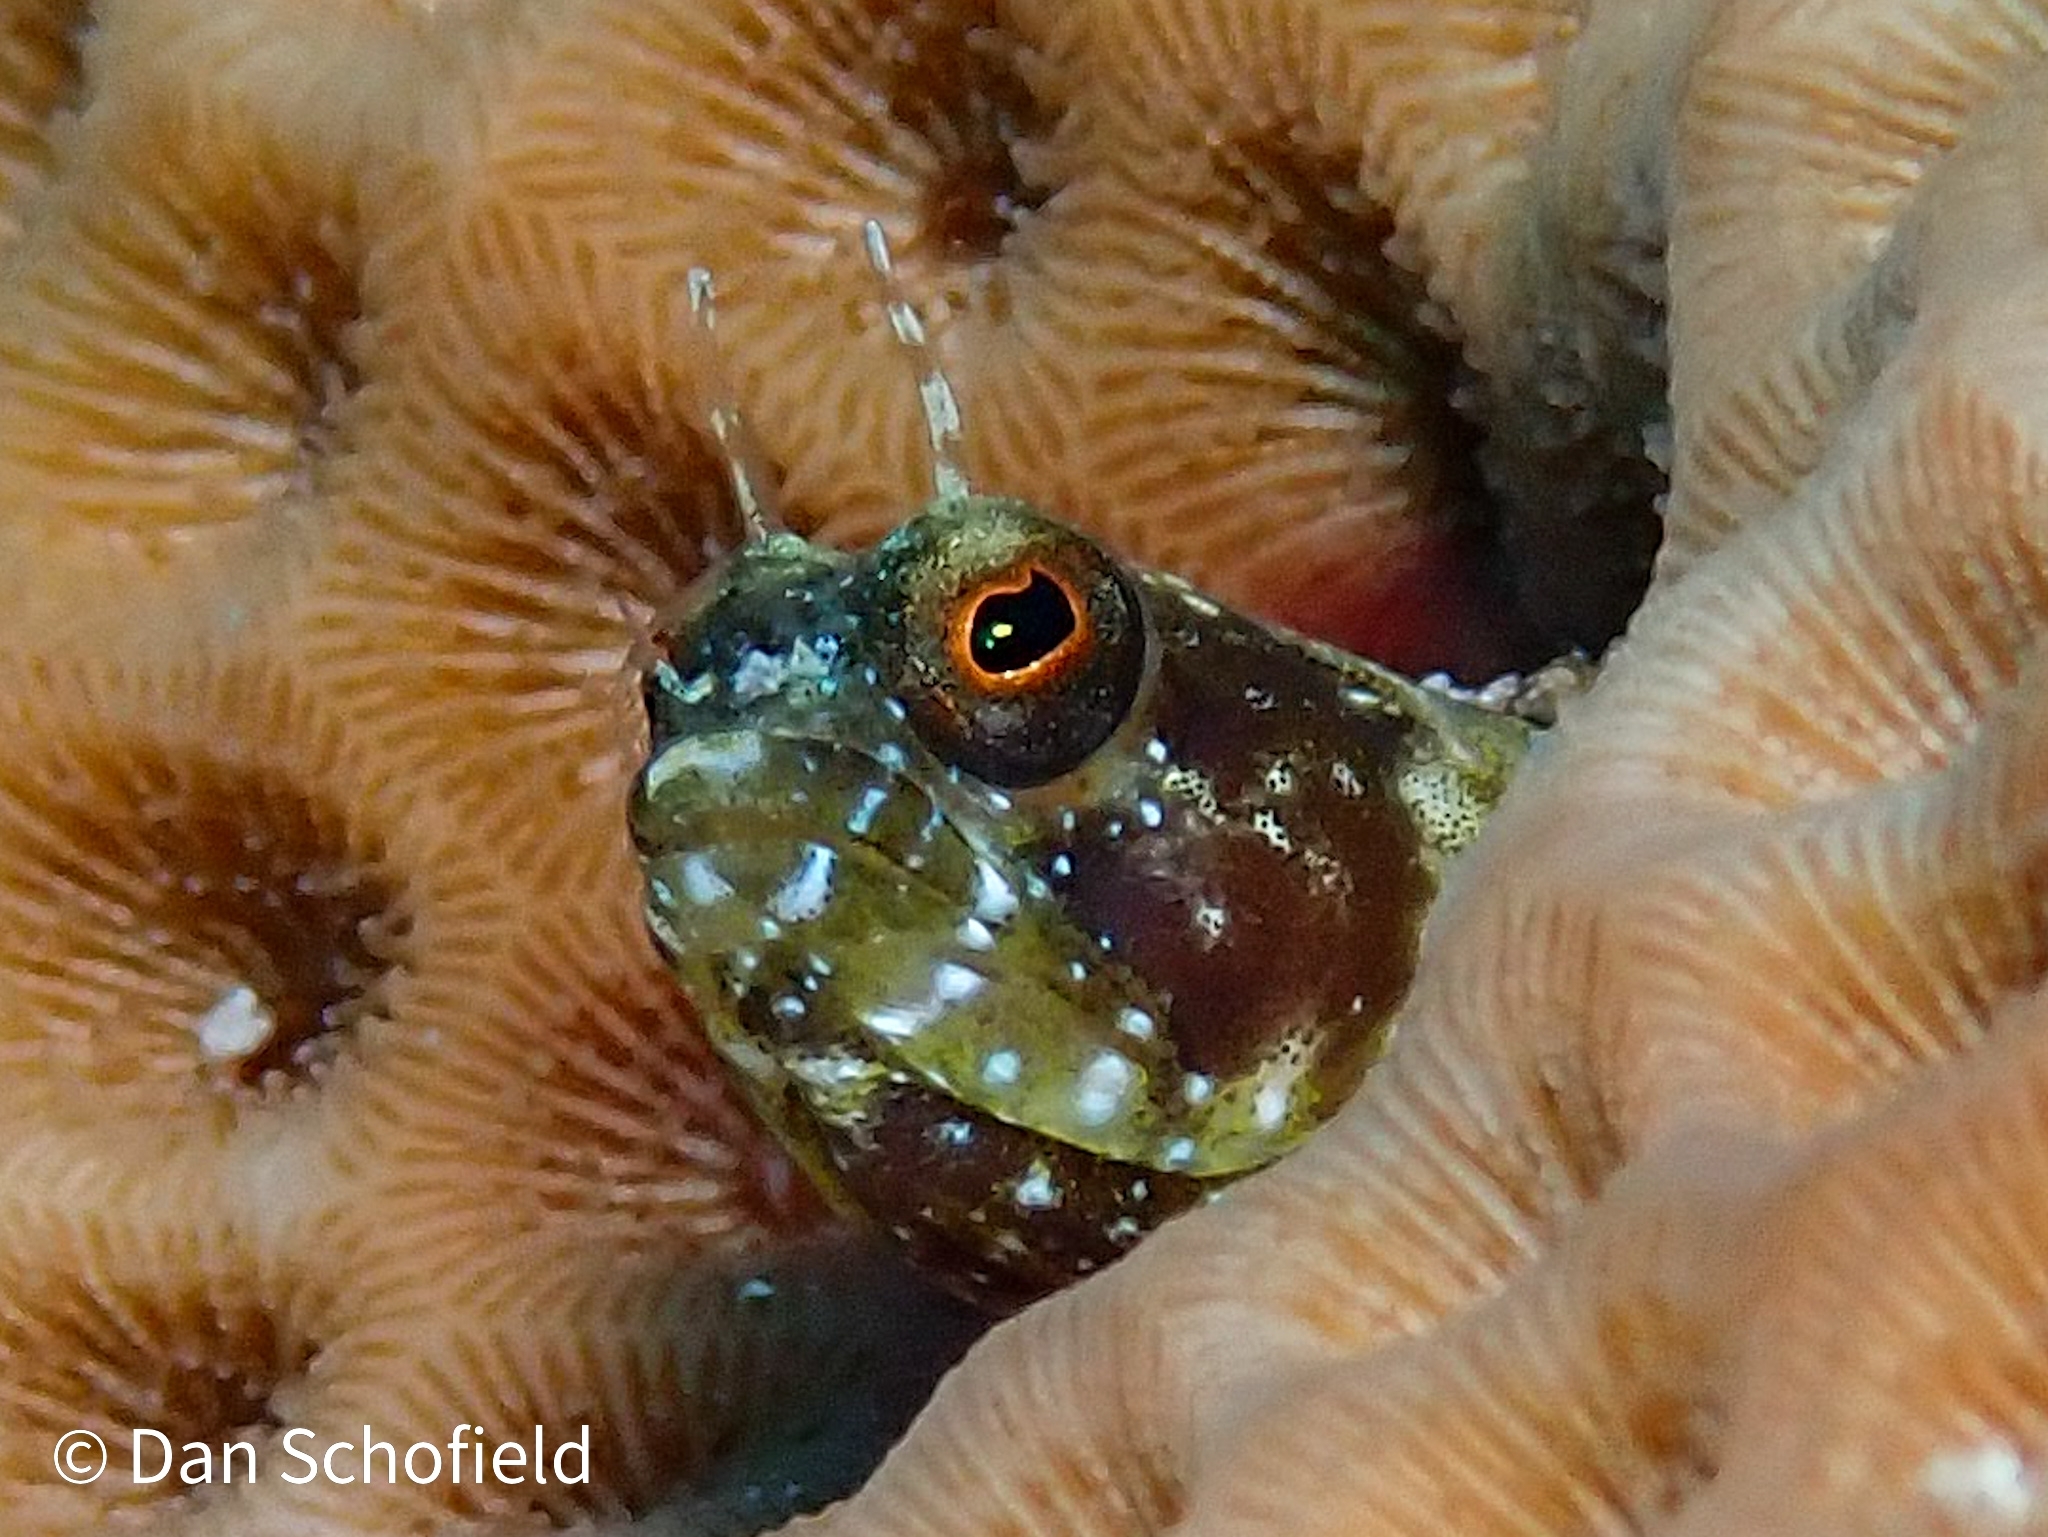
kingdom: Animalia
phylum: Chordata
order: Perciformes
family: Chaenopsidae
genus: Emblemaria
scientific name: Emblemaria pandionis
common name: Sailfin blenny
